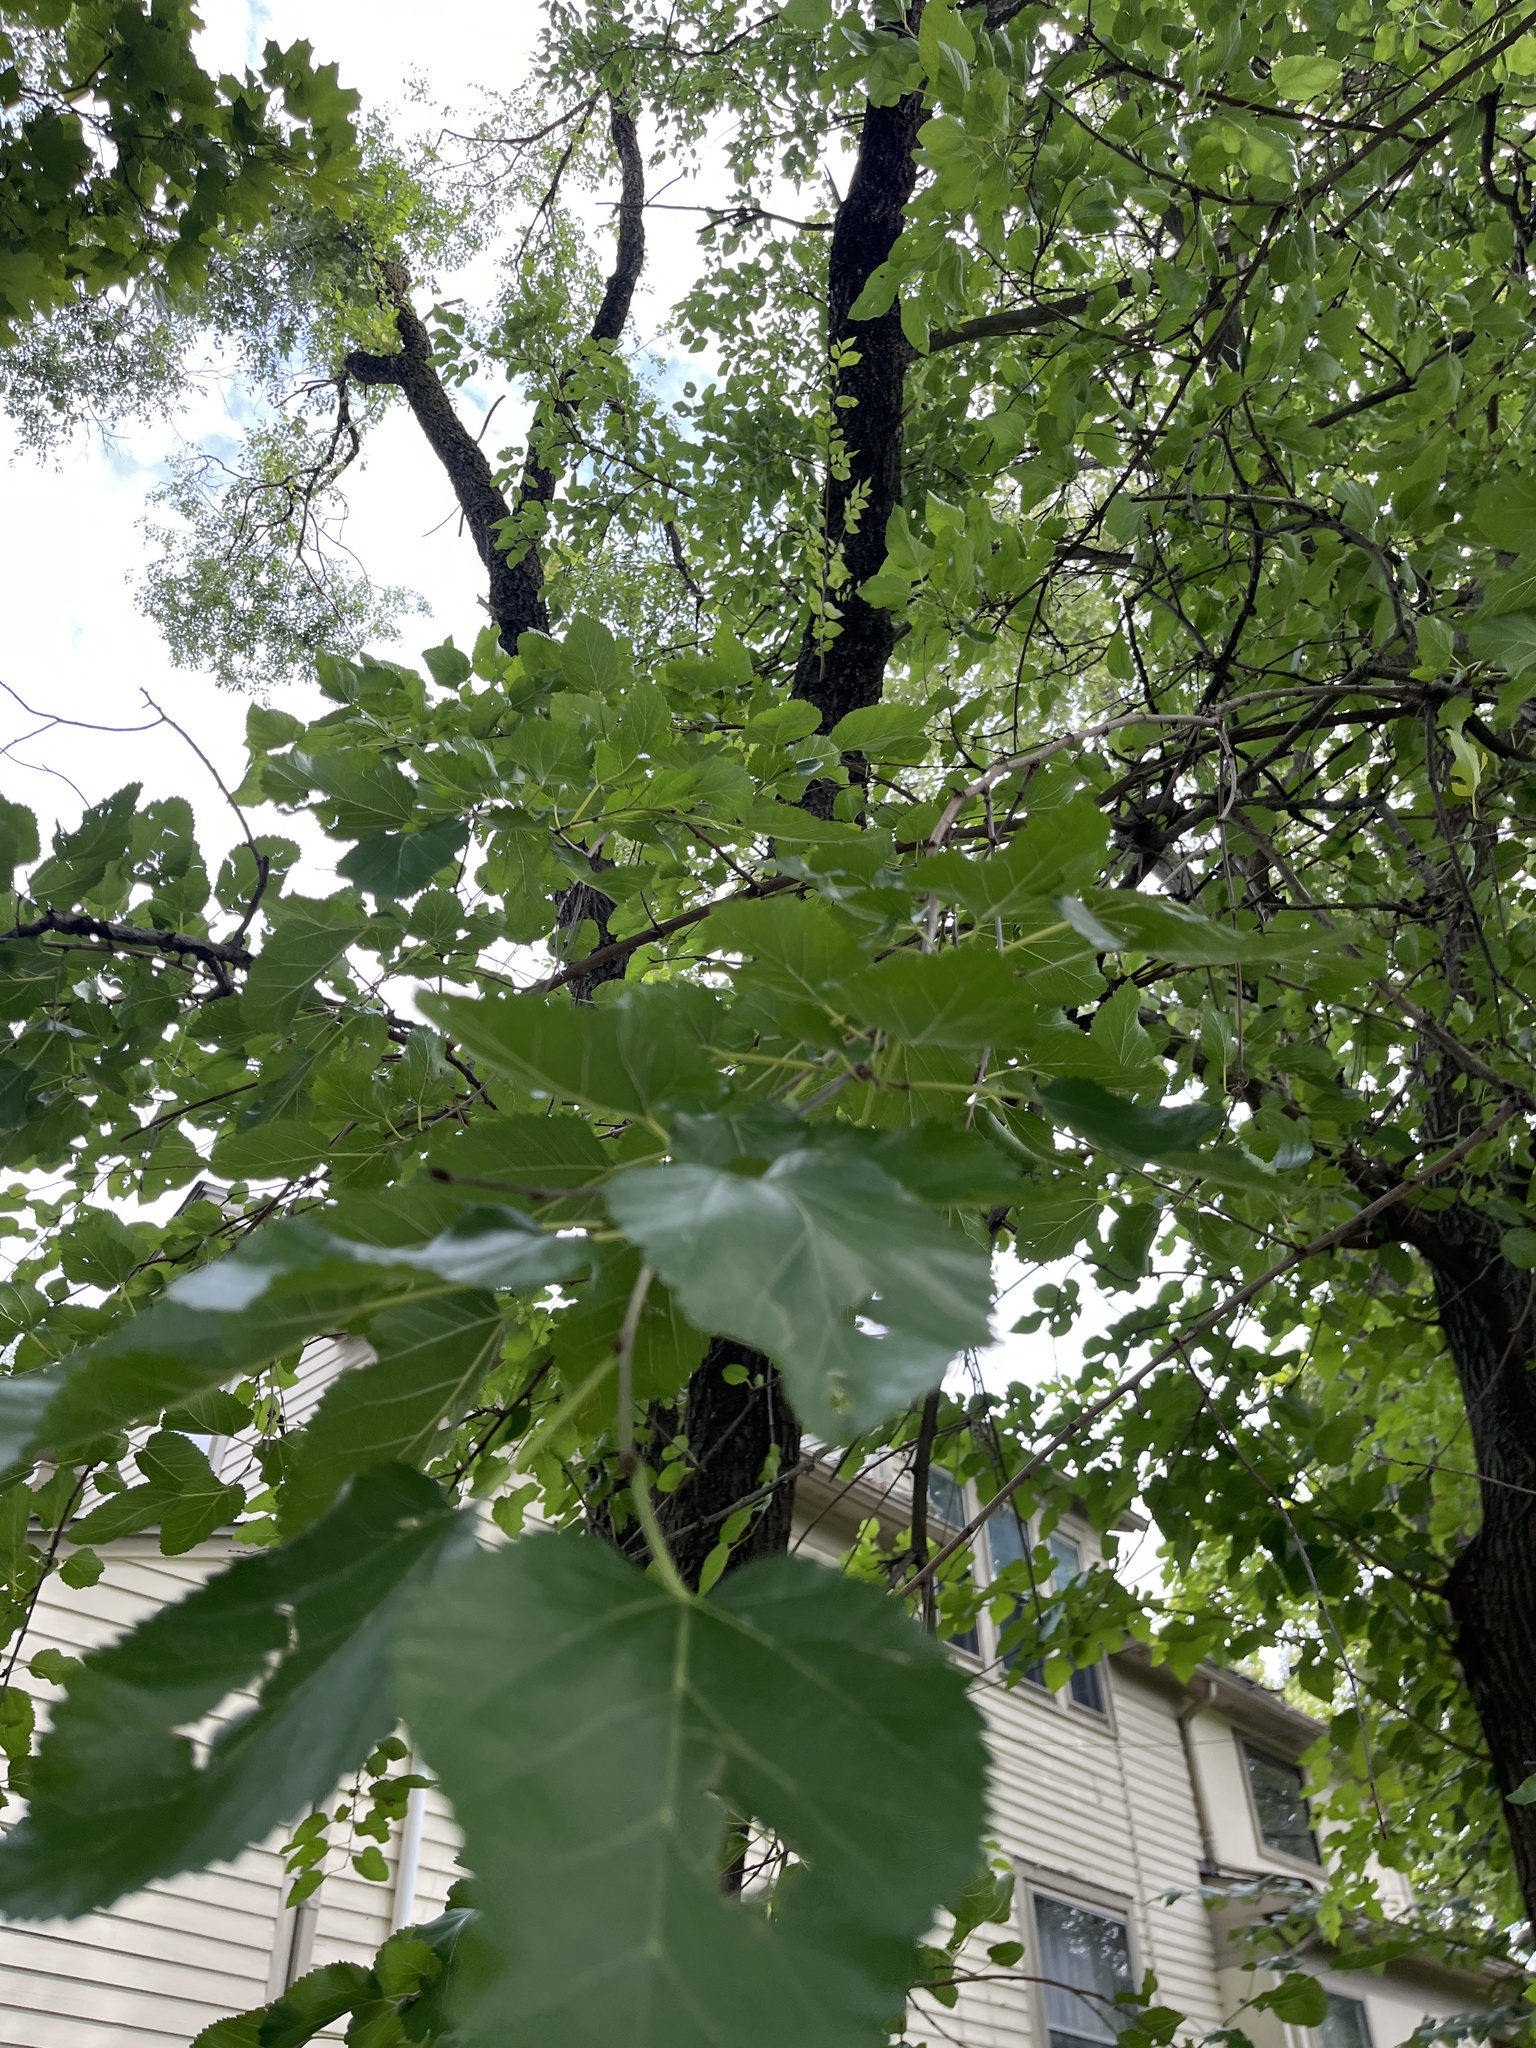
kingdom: Plantae
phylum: Tracheophyta
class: Magnoliopsida
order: Rosales
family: Moraceae
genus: Morus
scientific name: Morus alba
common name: White mulberry
